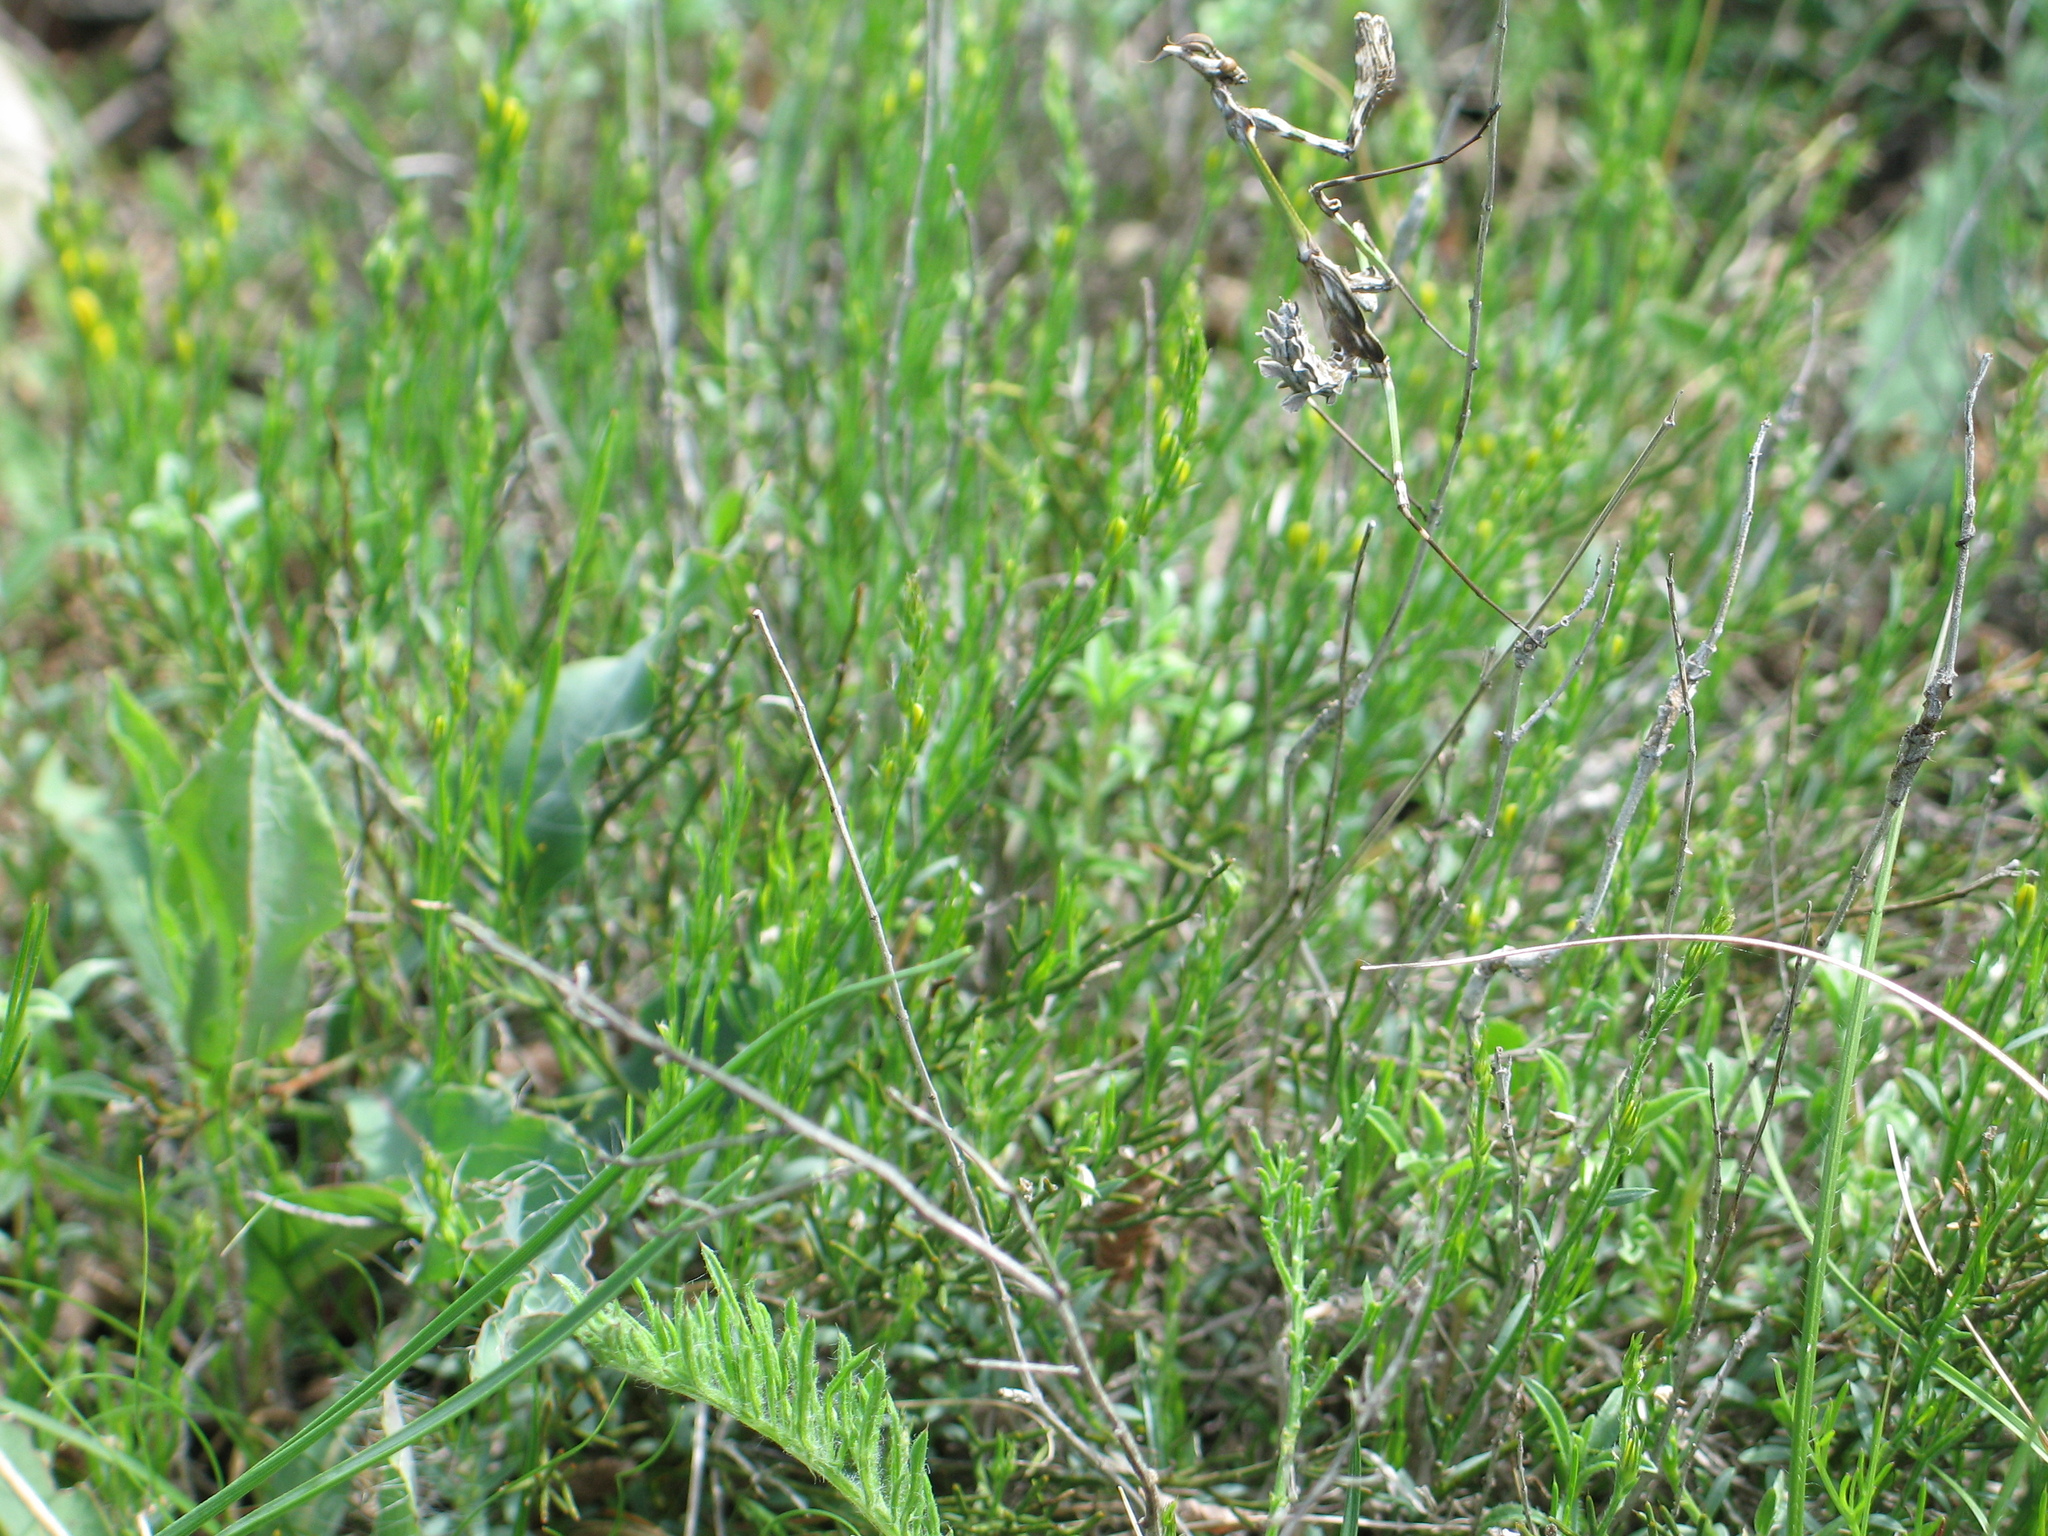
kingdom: Animalia
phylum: Arthropoda
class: Insecta
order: Mantodea
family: Empusidae
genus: Empusa
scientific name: Empusa fasciata
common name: Devil's mare
